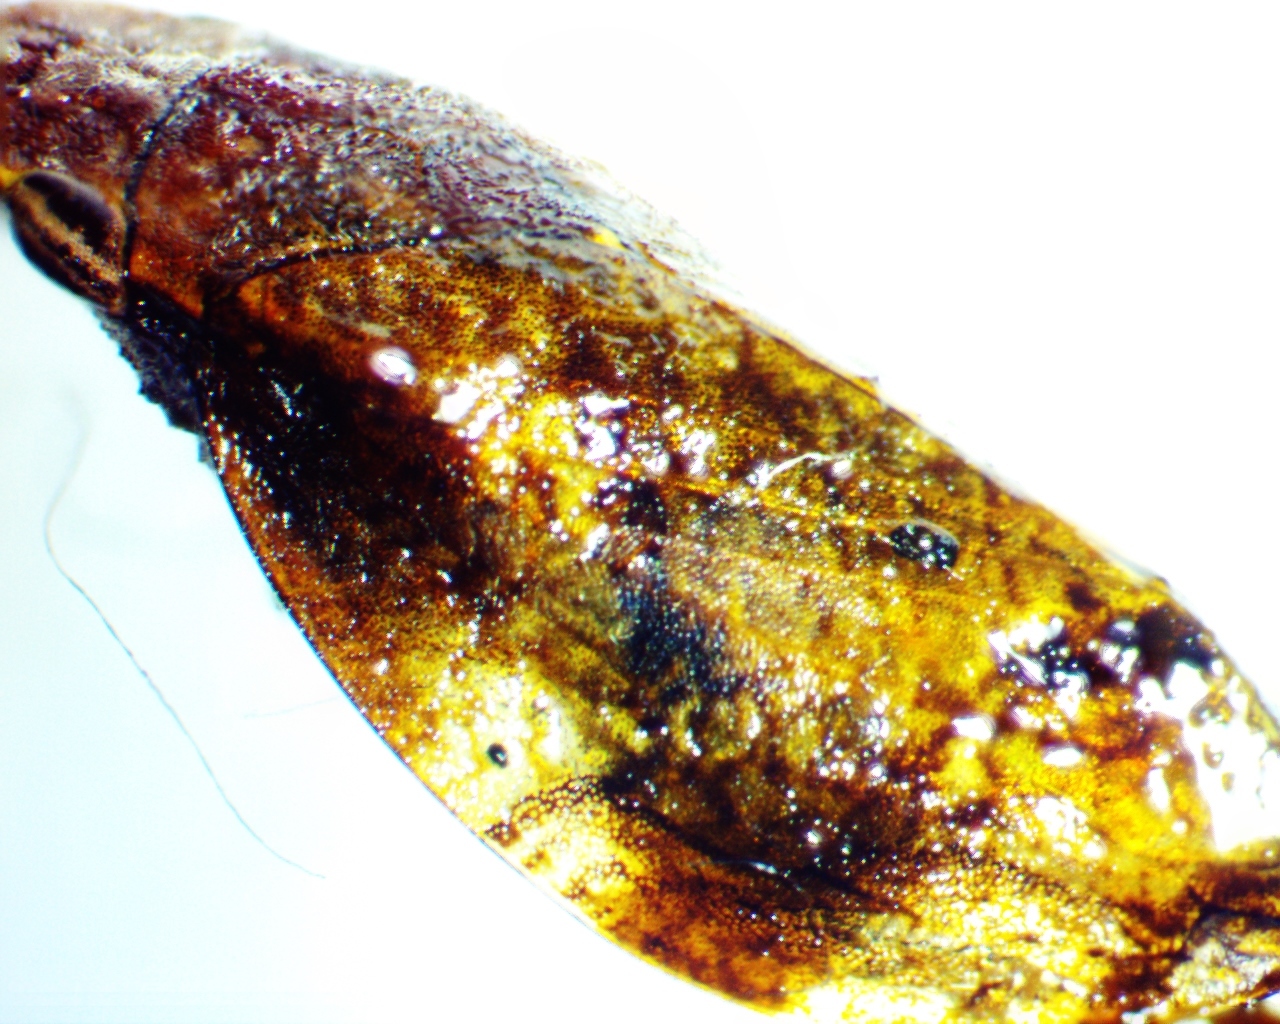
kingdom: Animalia
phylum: Arthropoda
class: Insecta
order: Hemiptera
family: Aphrophoridae
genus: Lepyronia
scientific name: Lepyronia quadrangularis
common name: Diamond-backed spittlebug
